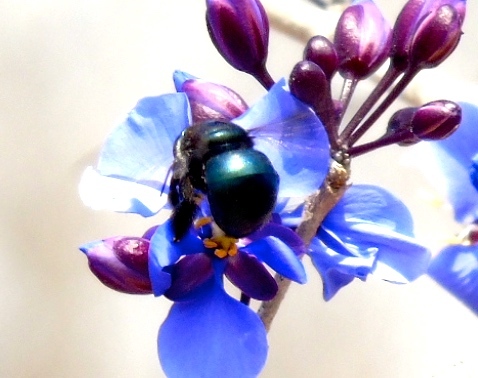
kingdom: Animalia
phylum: Arthropoda
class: Insecta
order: Hymenoptera
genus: Schonnherria
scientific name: Schonnherria
